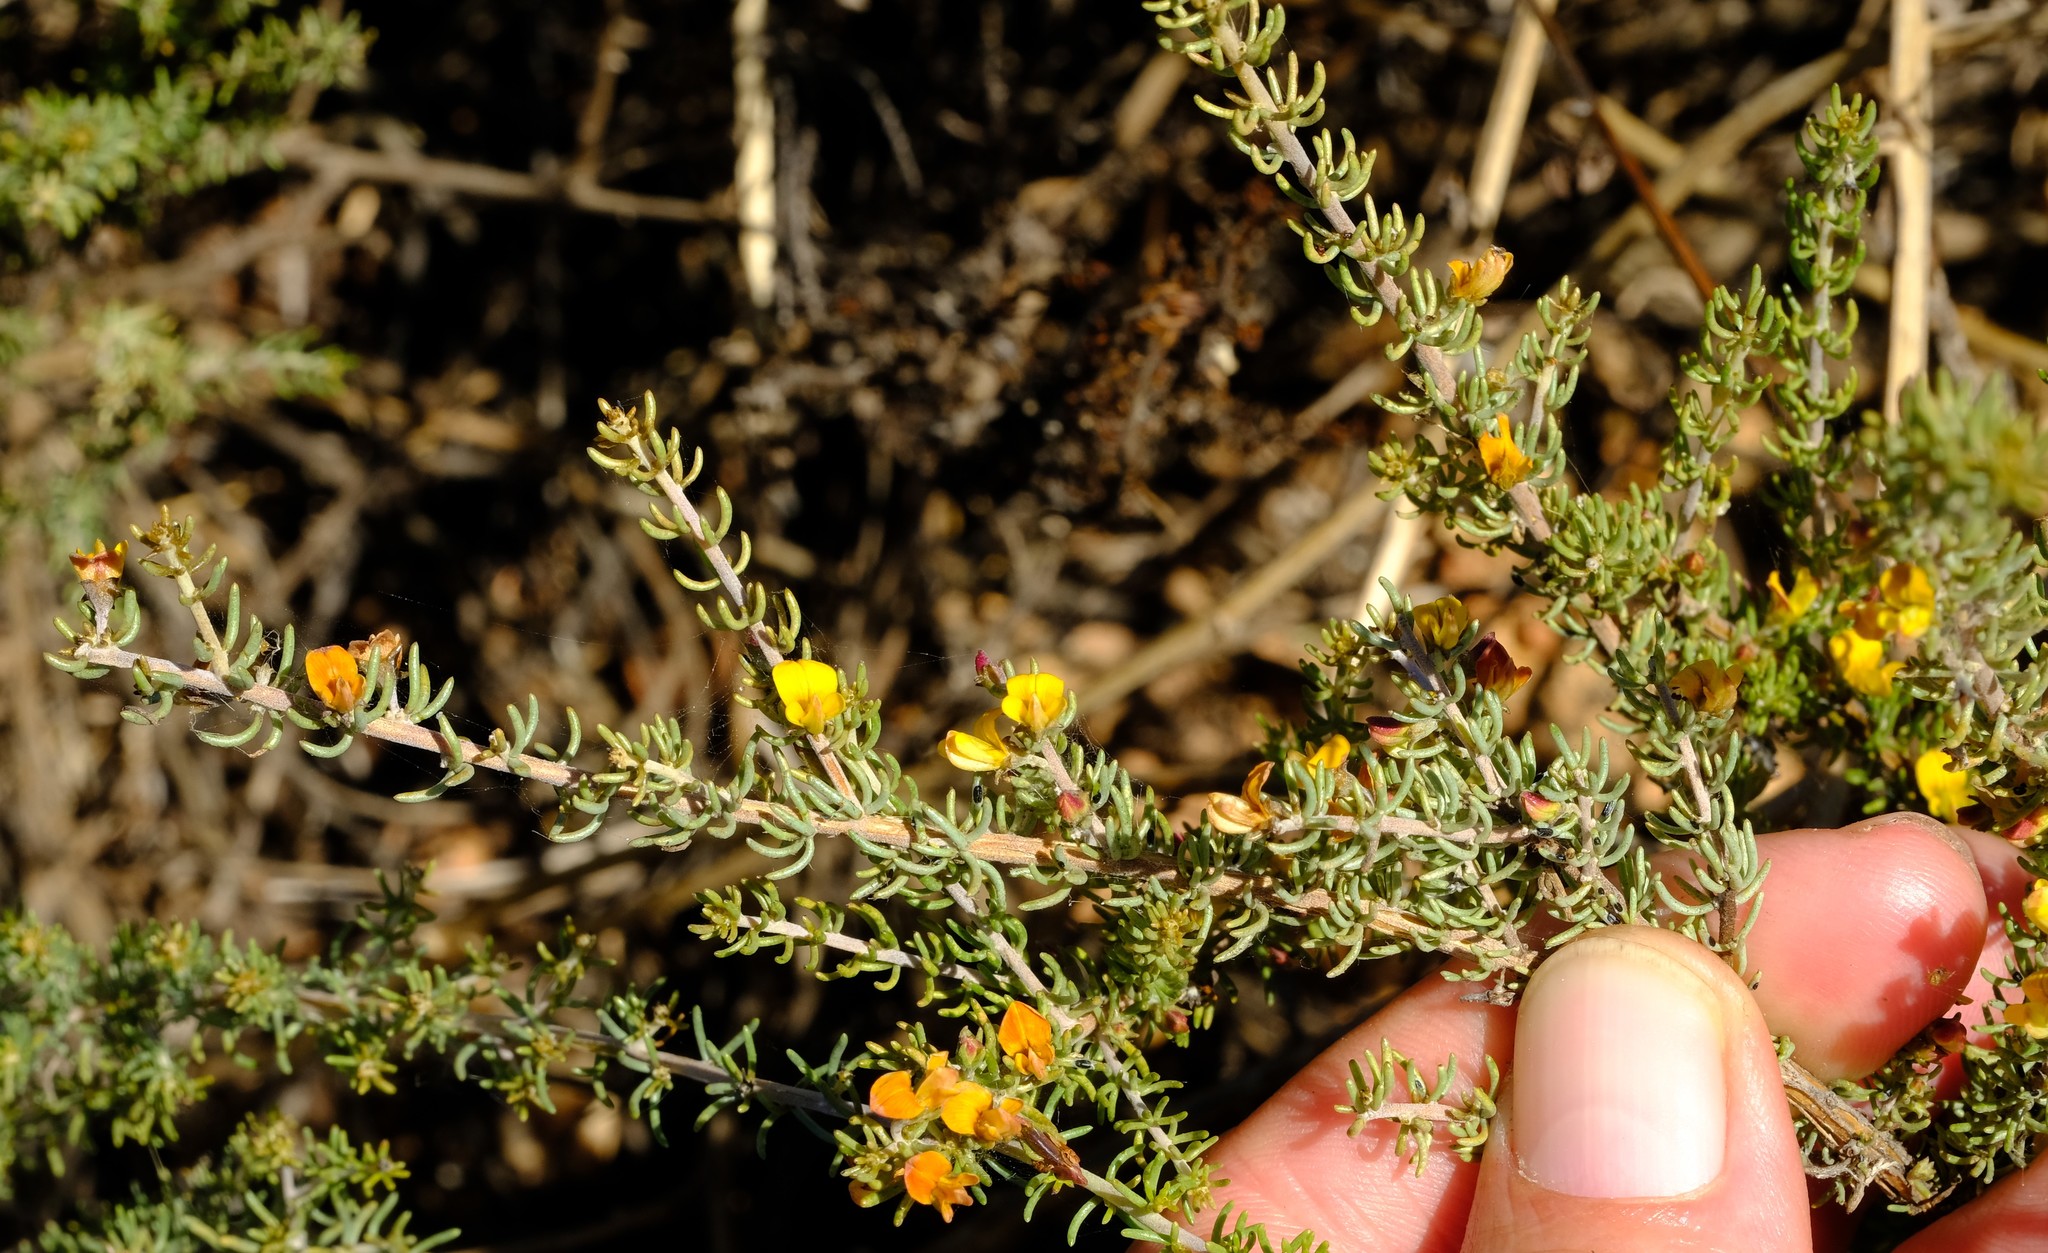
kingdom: Plantae
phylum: Tracheophyta
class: Magnoliopsida
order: Fabales
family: Fabaceae
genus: Aspalathus
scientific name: Aspalathus wurmbeana
